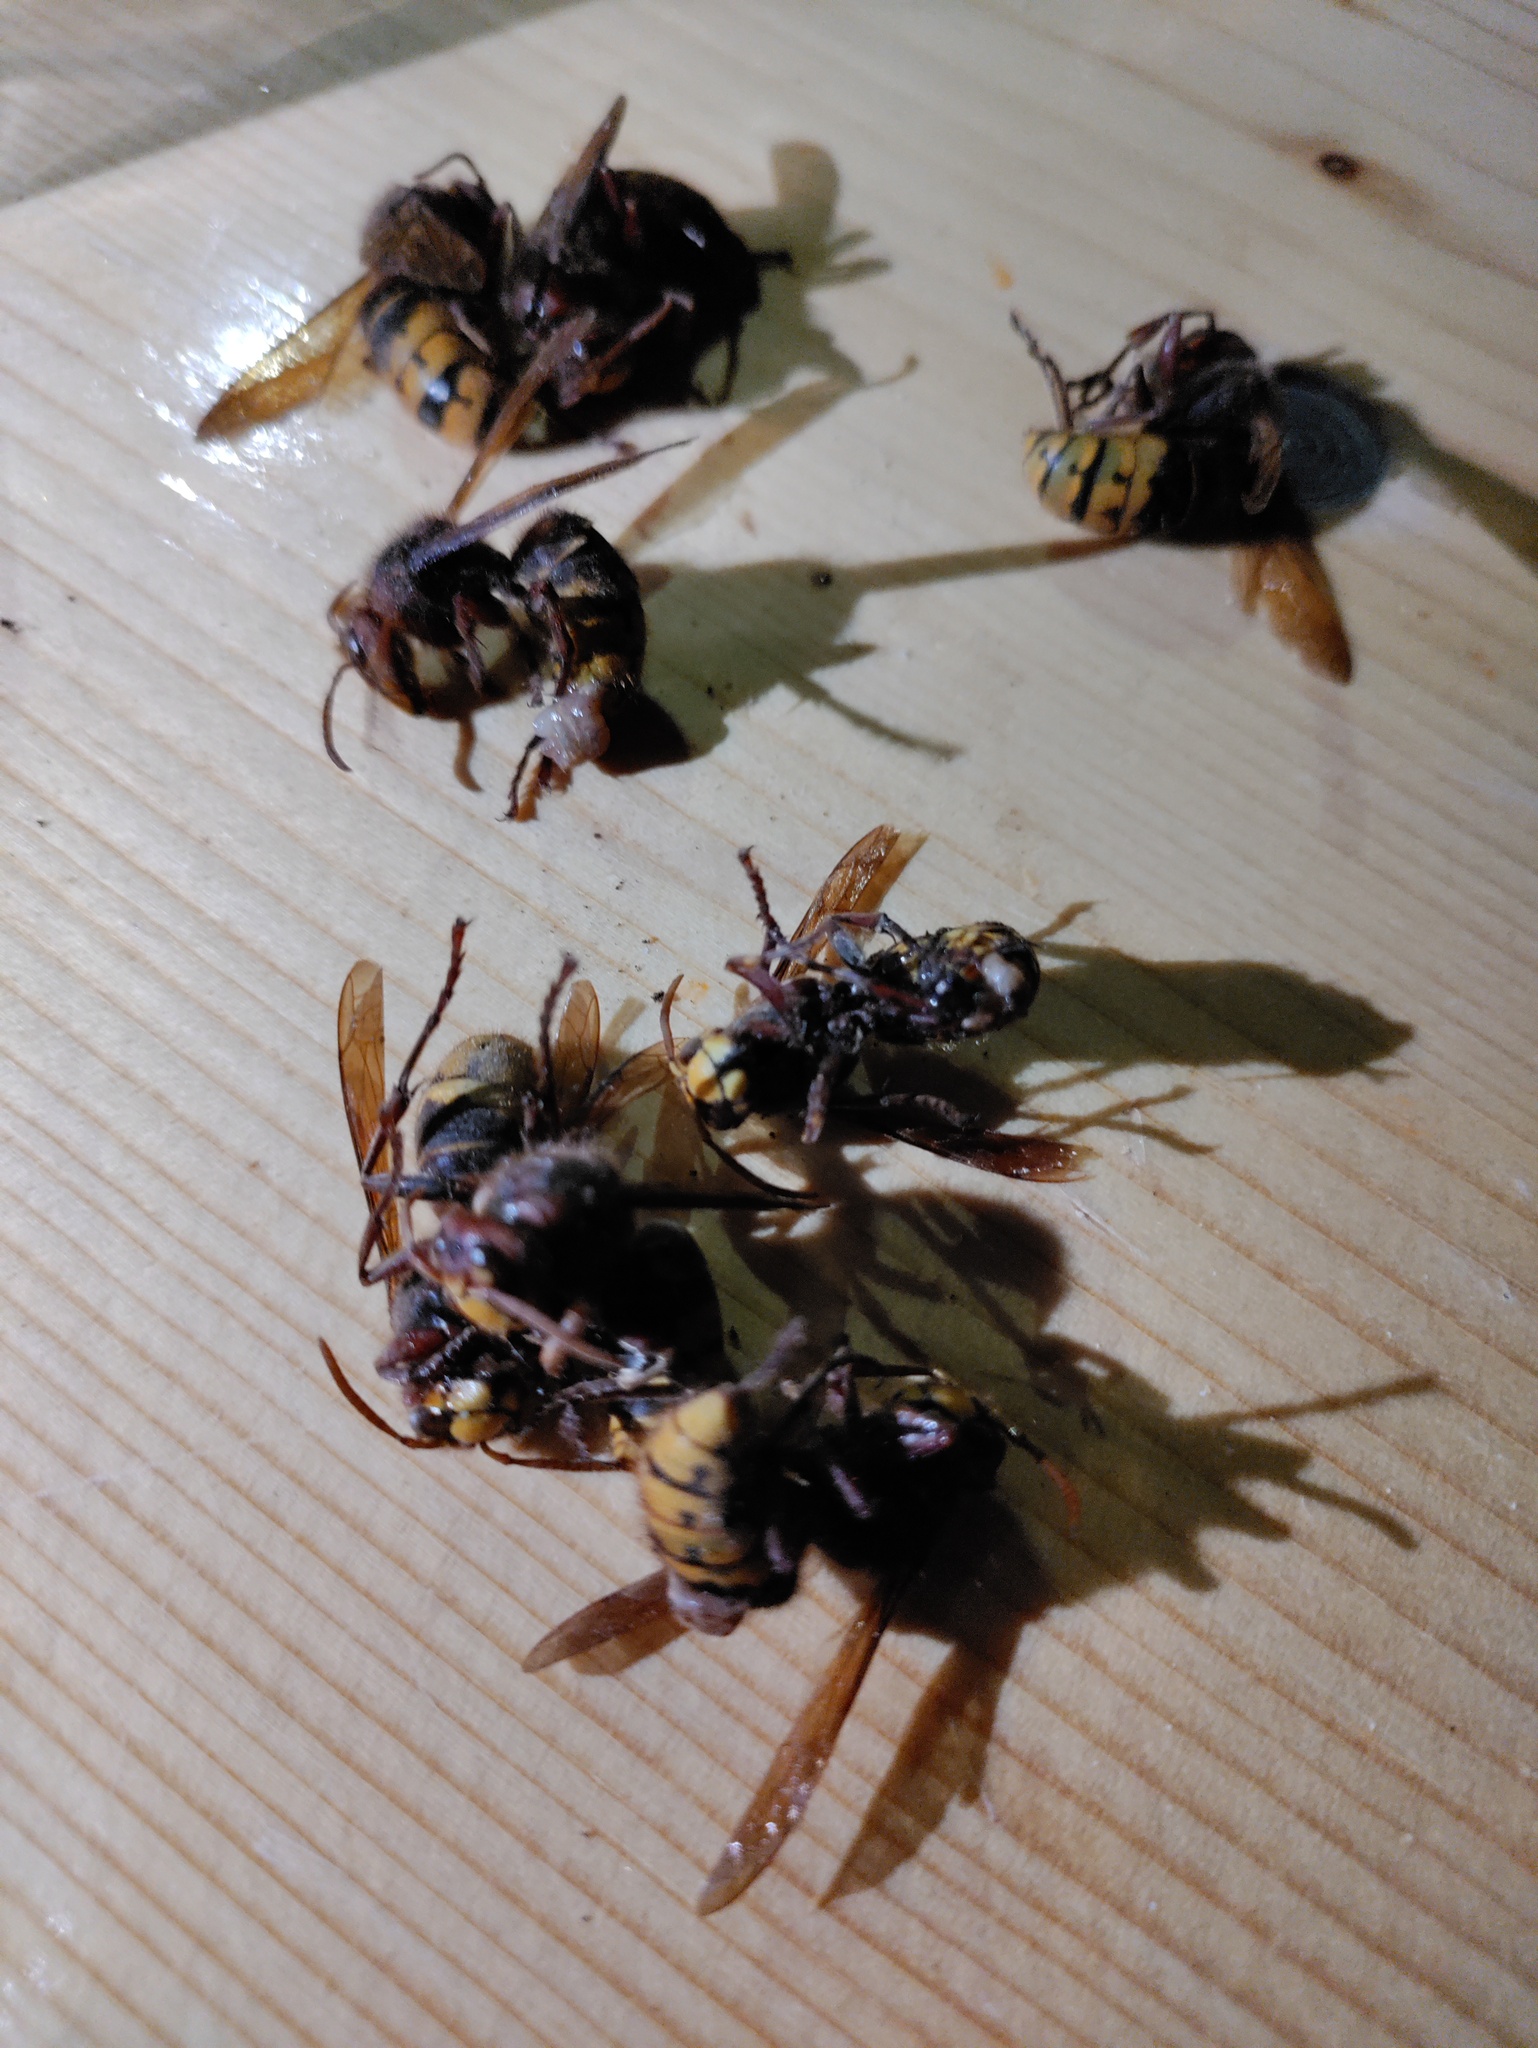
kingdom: Animalia
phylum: Arthropoda
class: Insecta
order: Hymenoptera
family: Vespidae
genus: Vespa
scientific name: Vespa crabro
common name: Hornet
